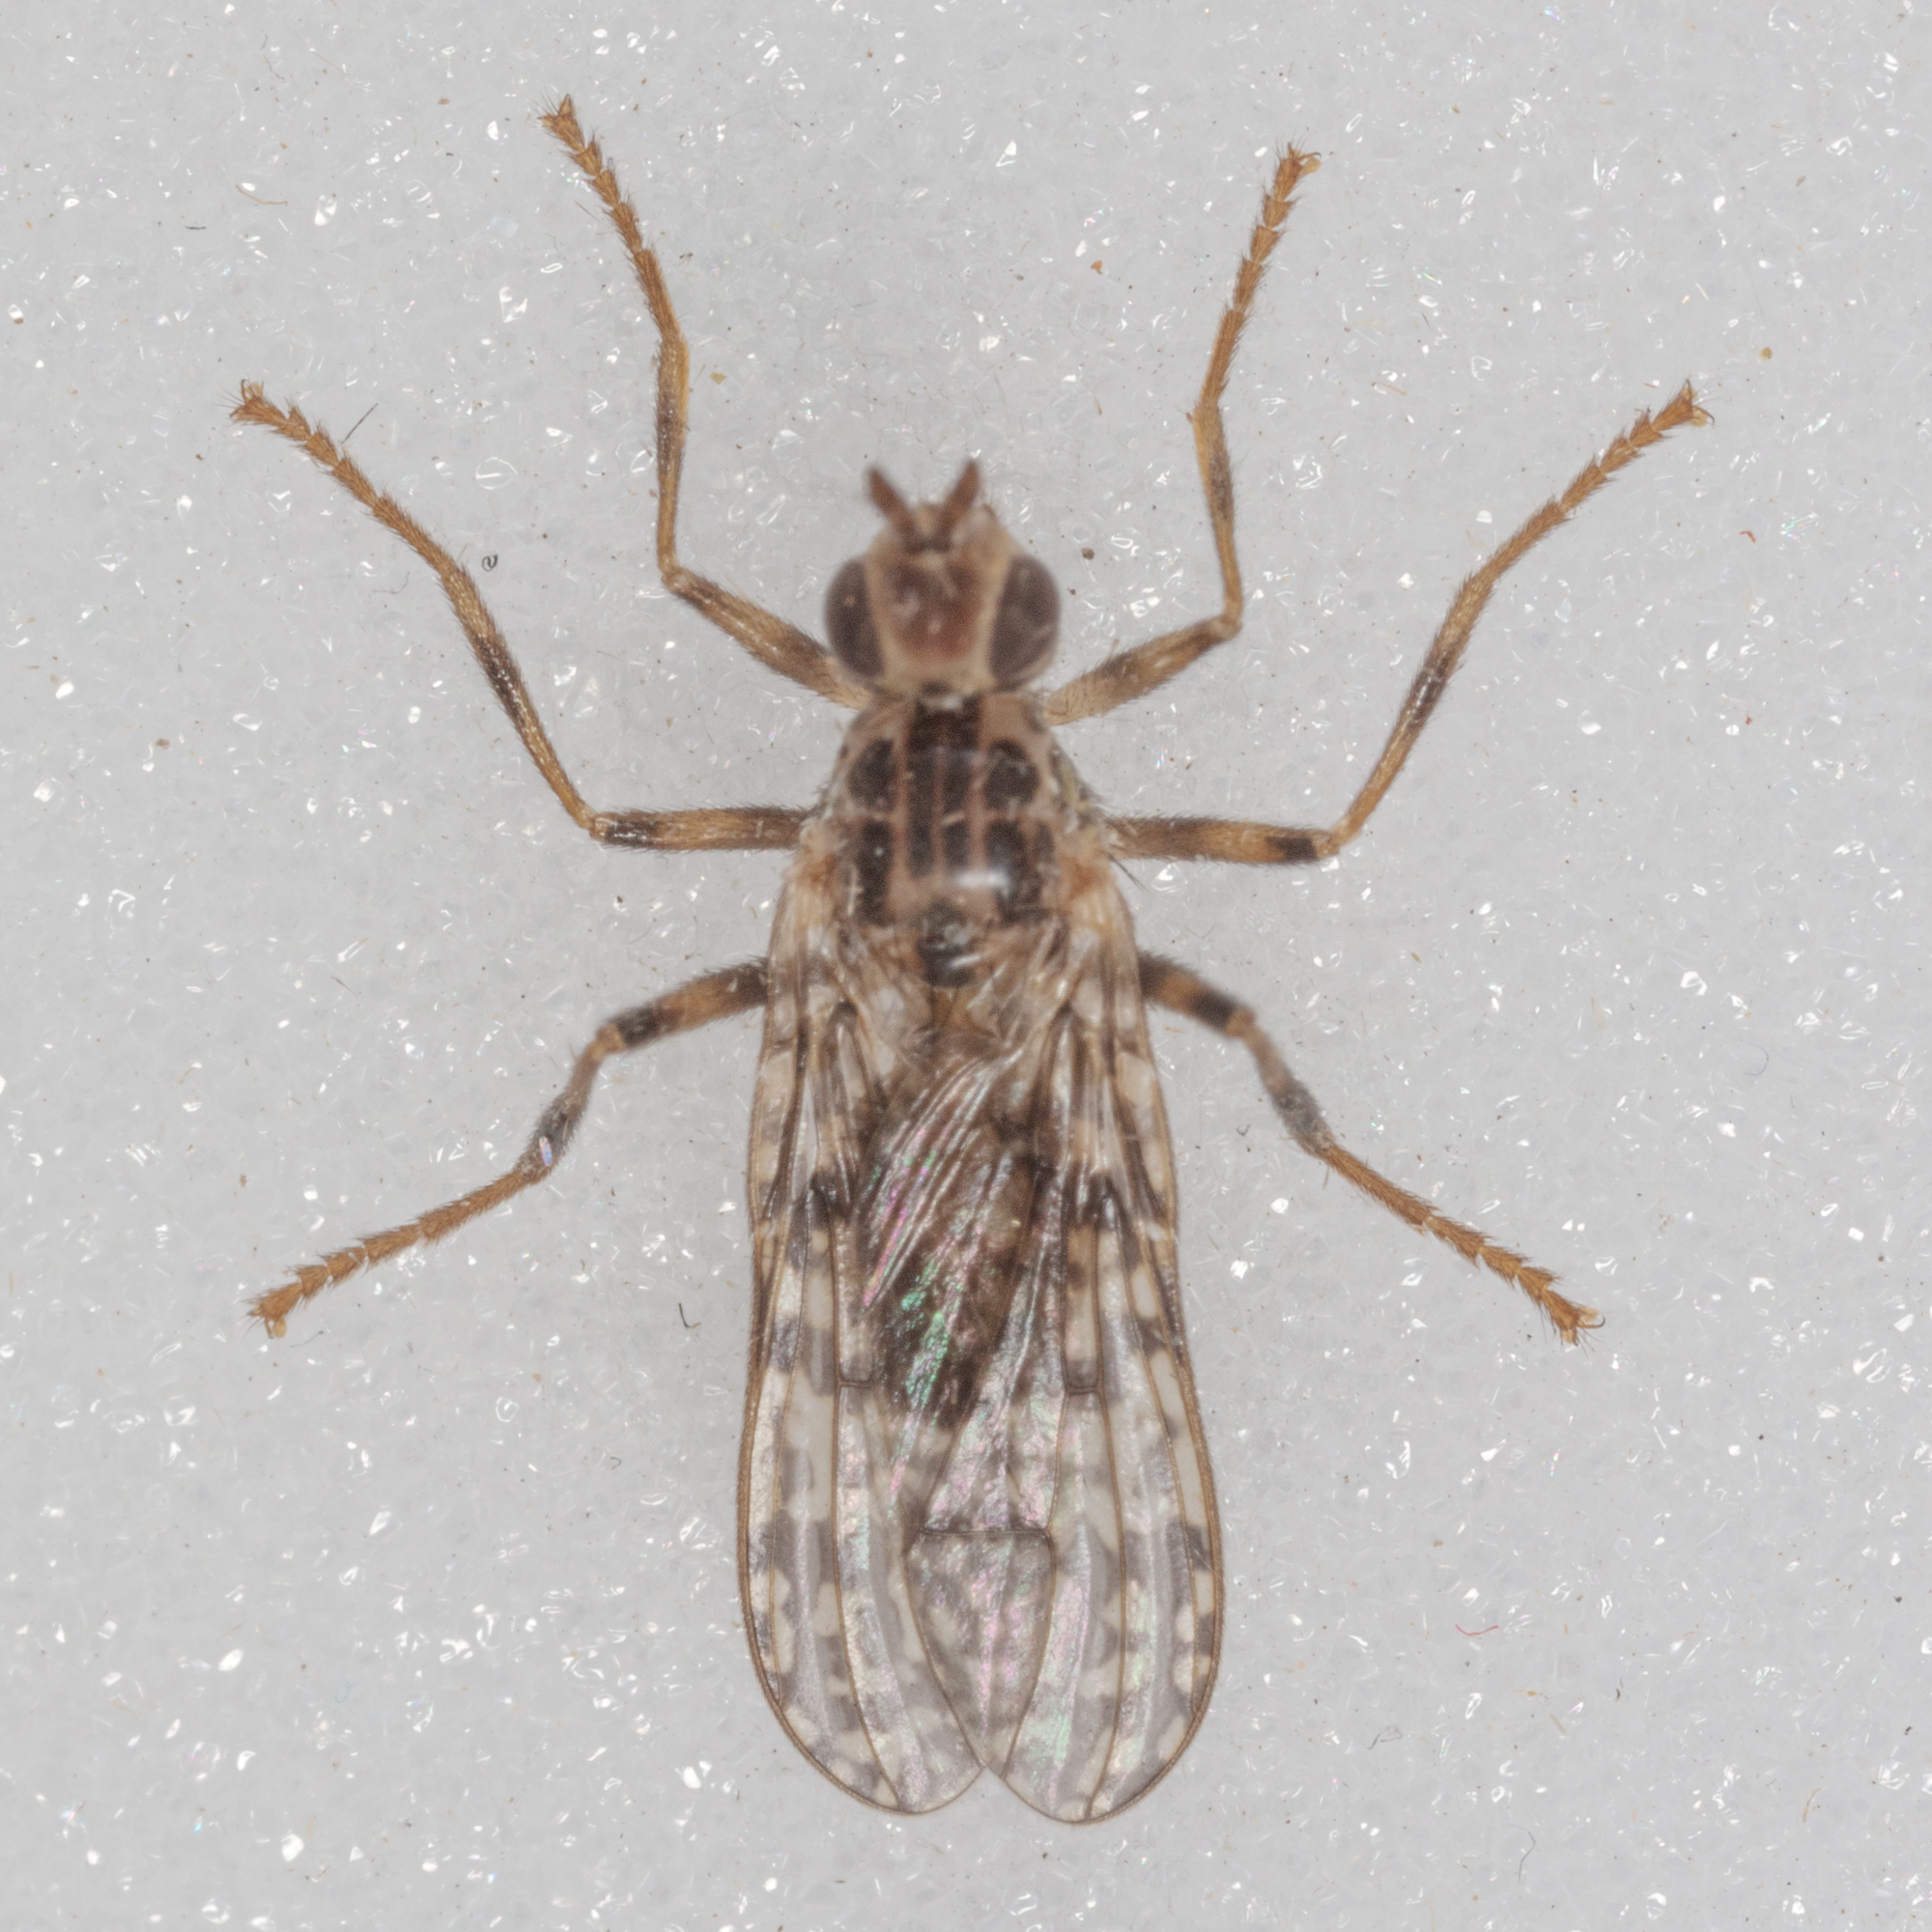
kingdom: Animalia
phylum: Arthropoda
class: Insecta
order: Diptera
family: Pyrgotidae
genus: Boreothrinax
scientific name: Boreothrinax
